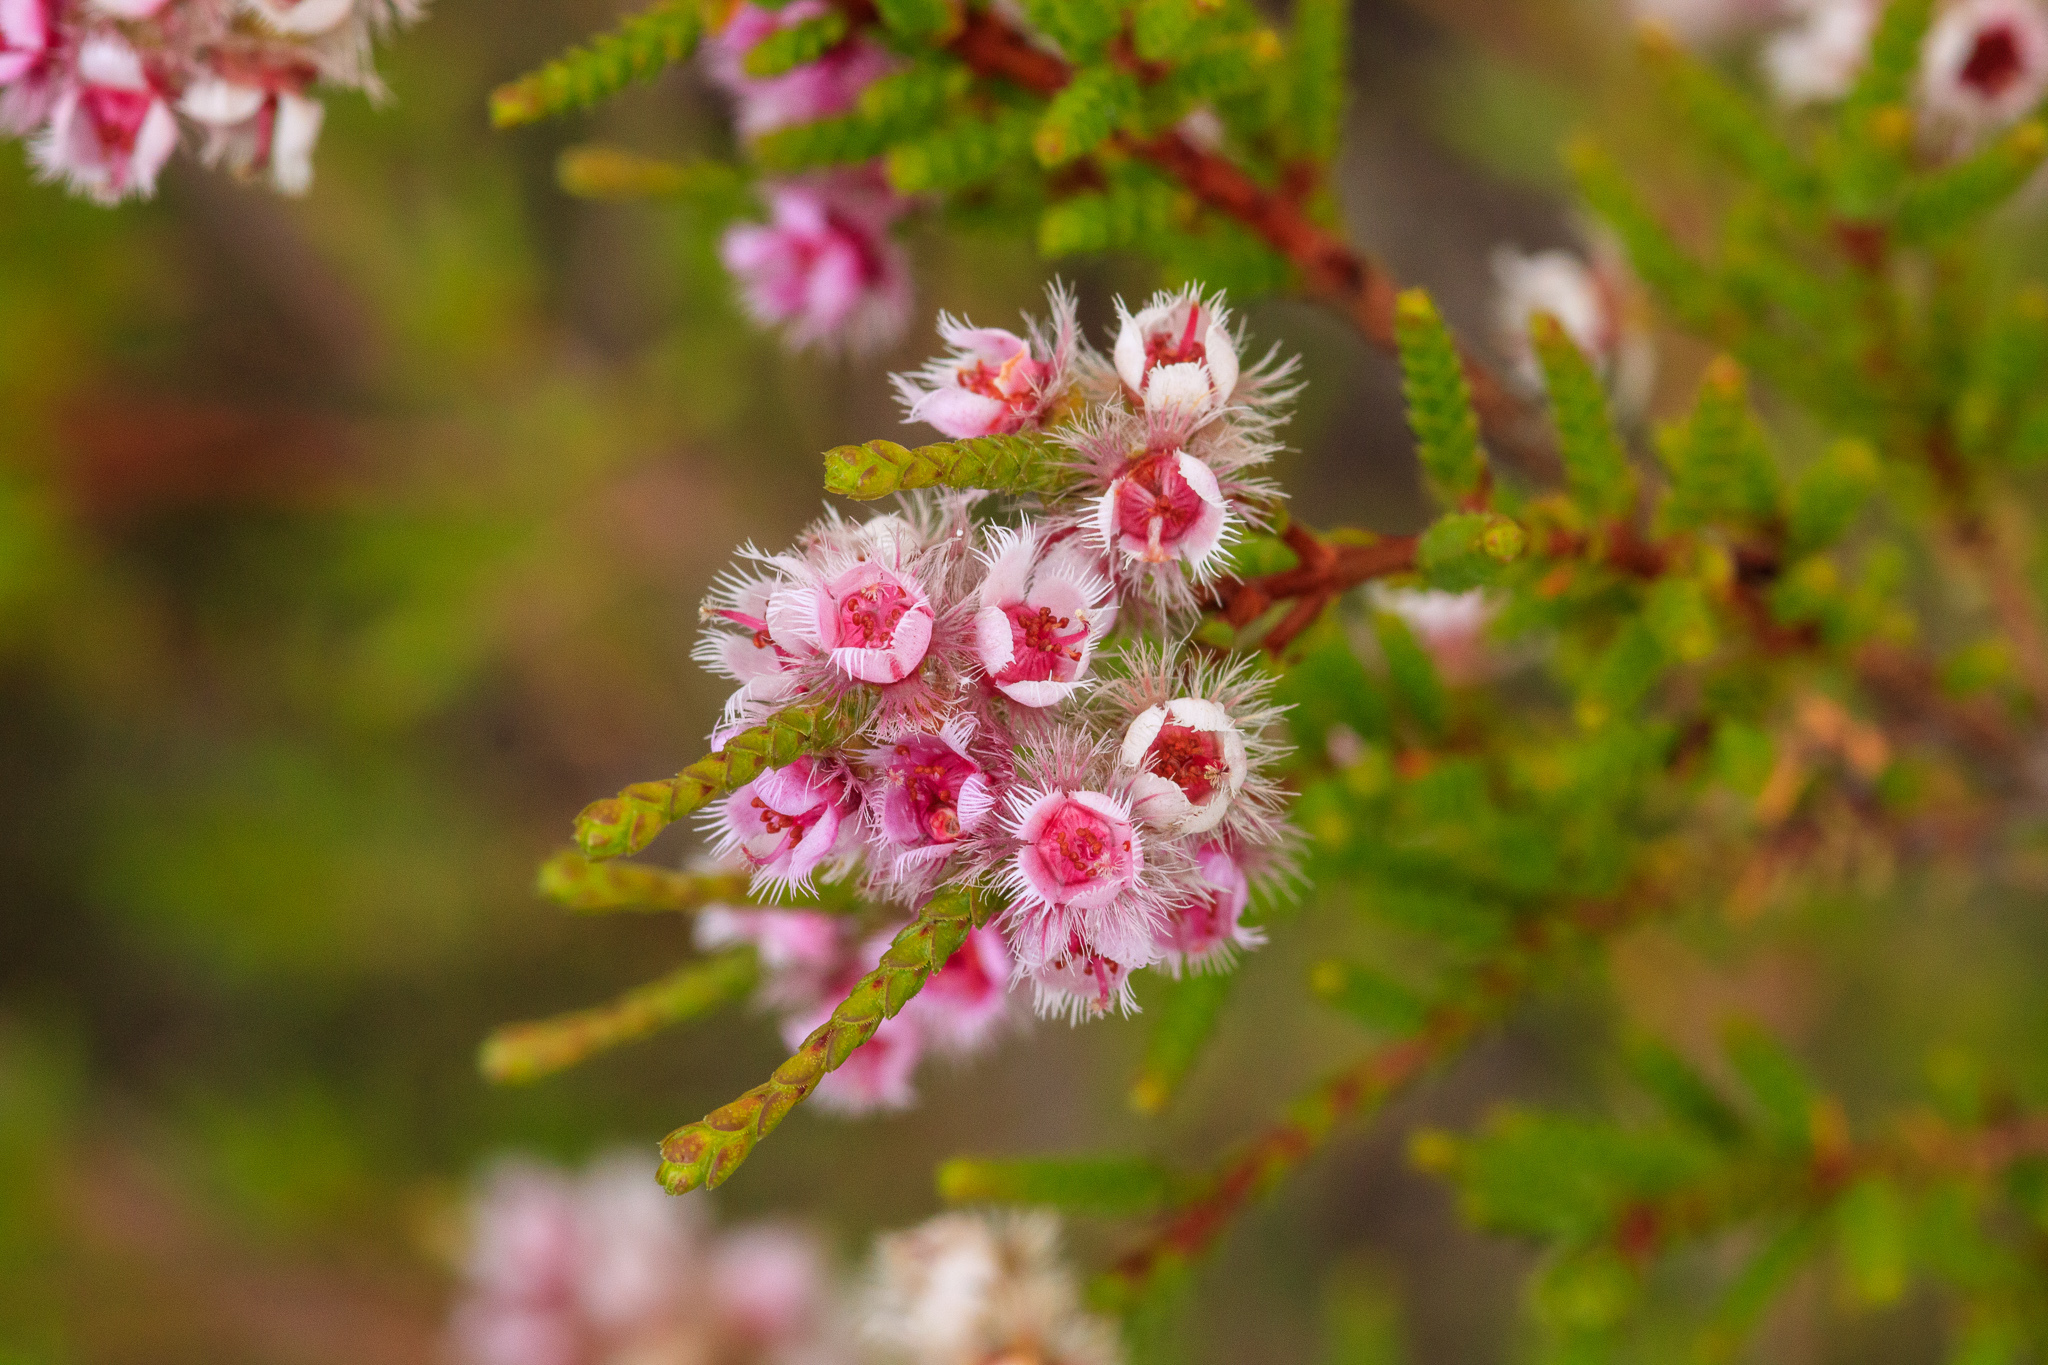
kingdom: Plantae
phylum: Tracheophyta
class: Magnoliopsida
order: Myrtales
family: Myrtaceae
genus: Verticordia
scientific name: Verticordia centipeda
